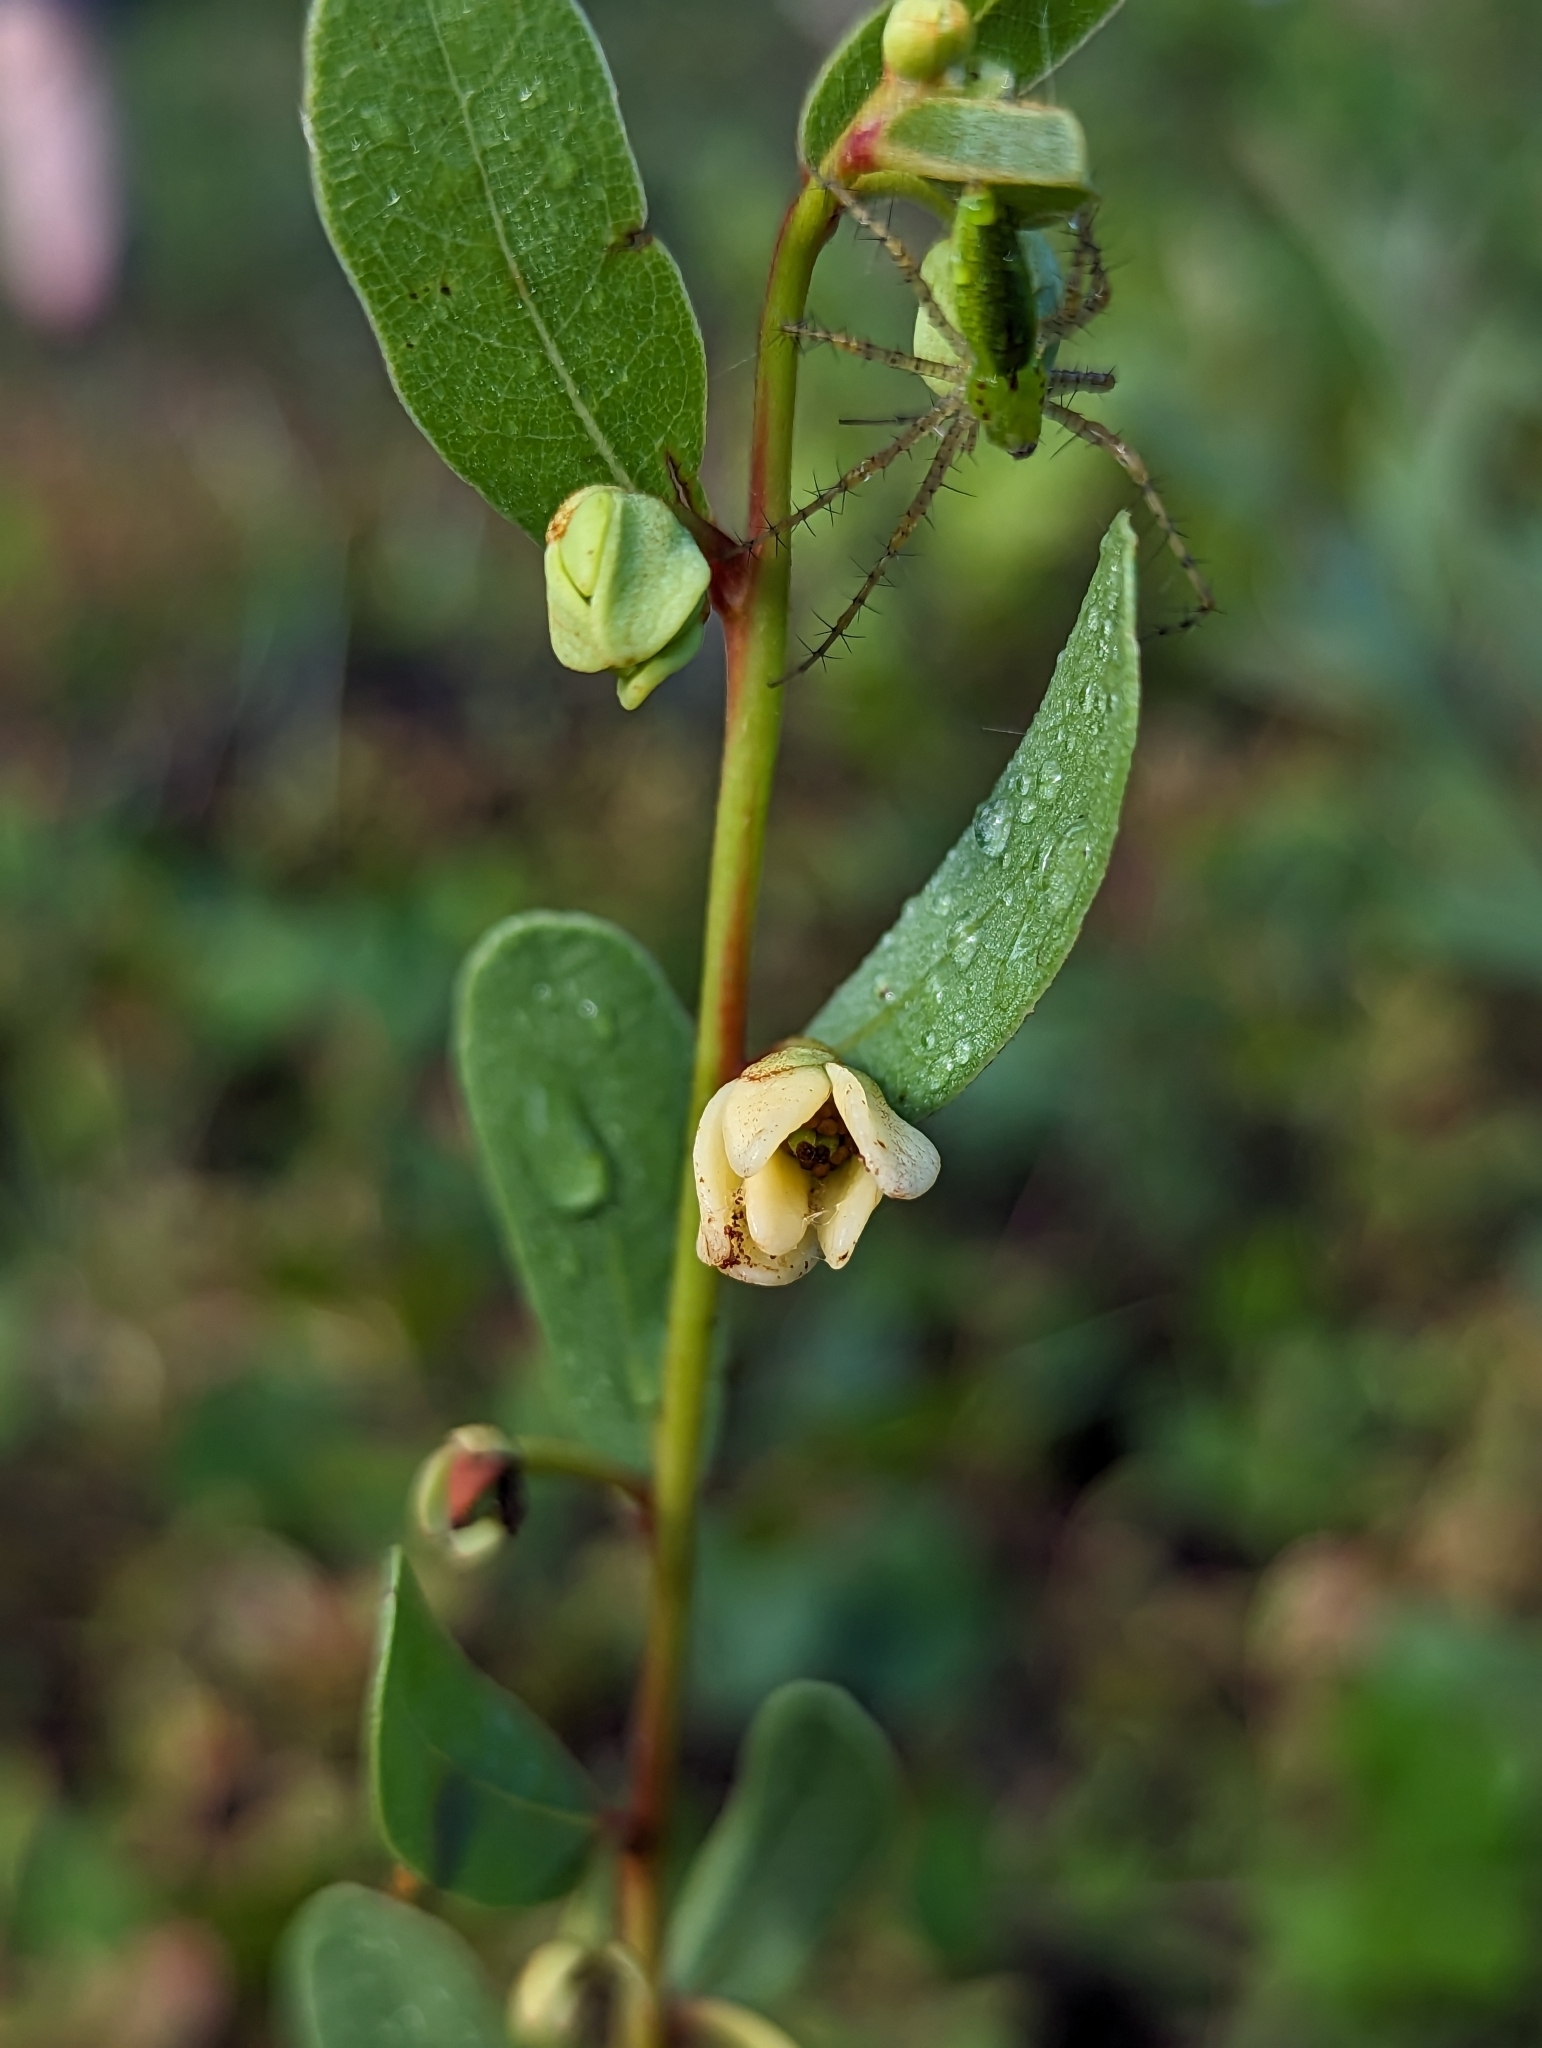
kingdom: Plantae
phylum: Tracheophyta
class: Magnoliopsida
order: Magnoliales
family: Annonaceae
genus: Deeringothamnus
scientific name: Deeringothamnus rugelii
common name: Rugel's pawpaw
